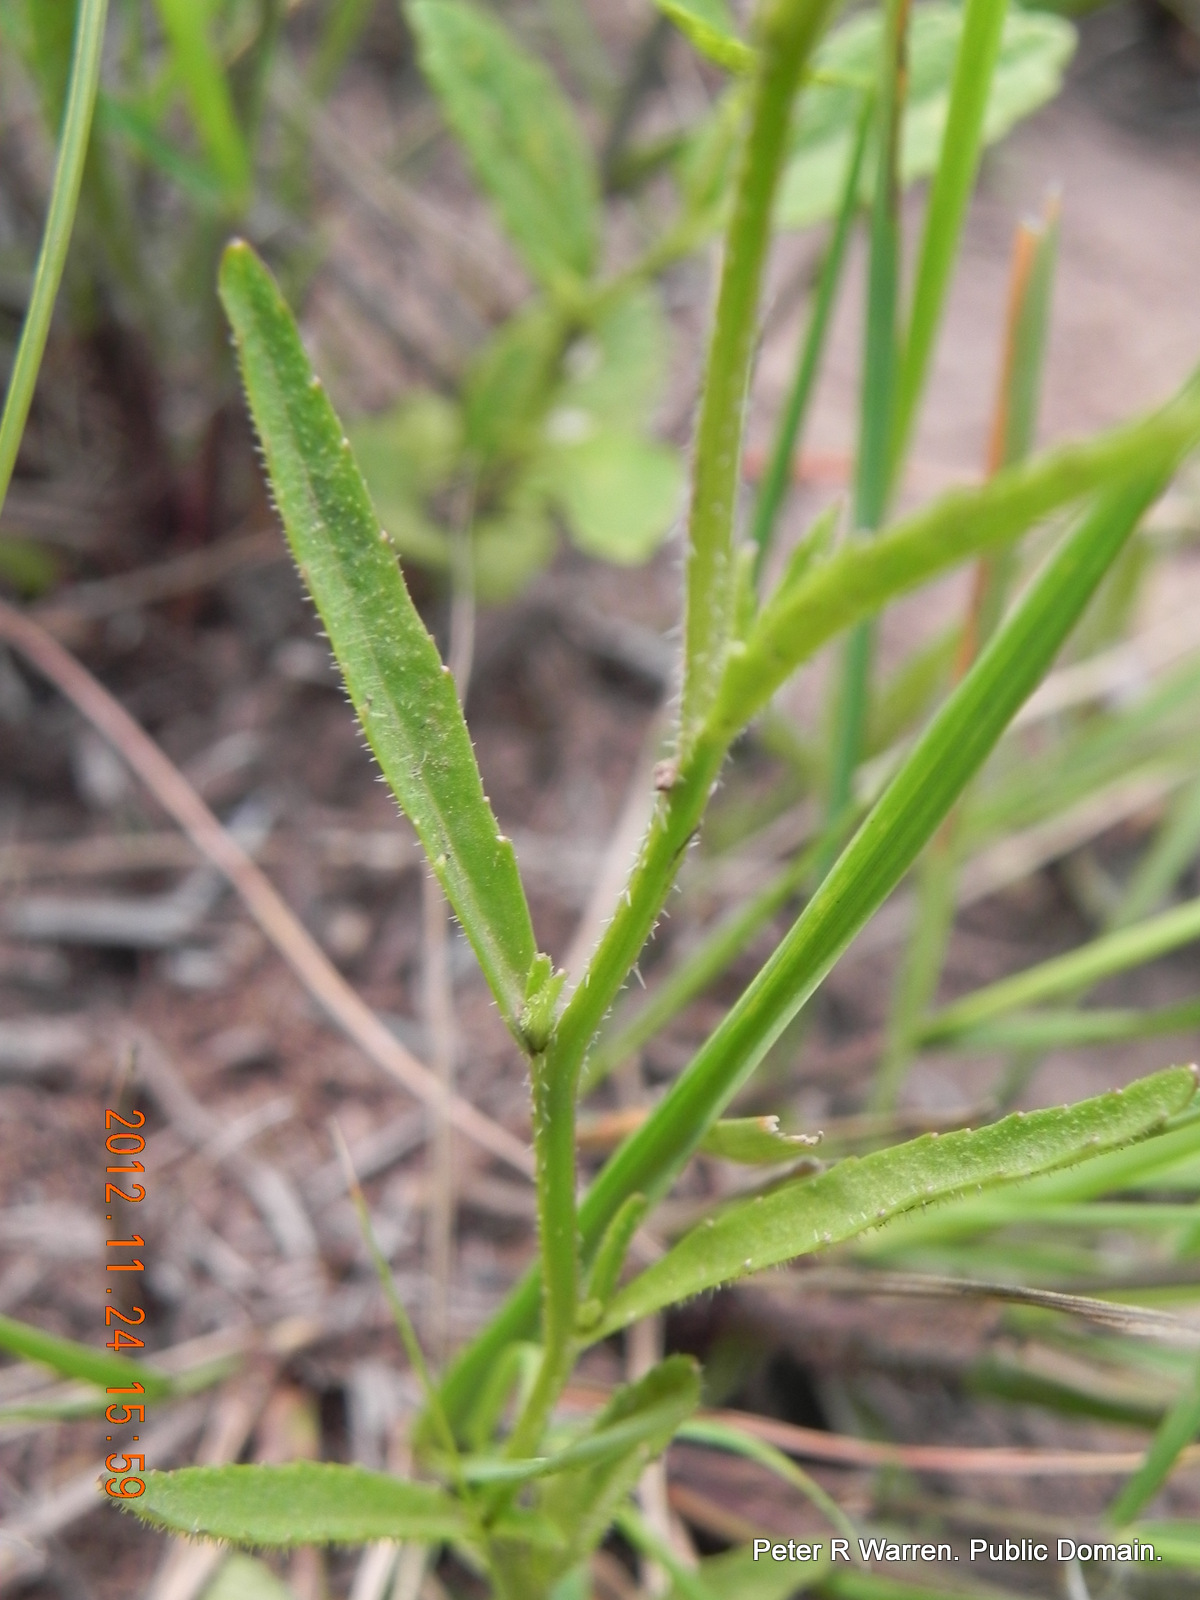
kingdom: Plantae
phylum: Tracheophyta
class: Magnoliopsida
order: Asterales
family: Campanulaceae
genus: Lobelia
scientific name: Lobelia flaccida
